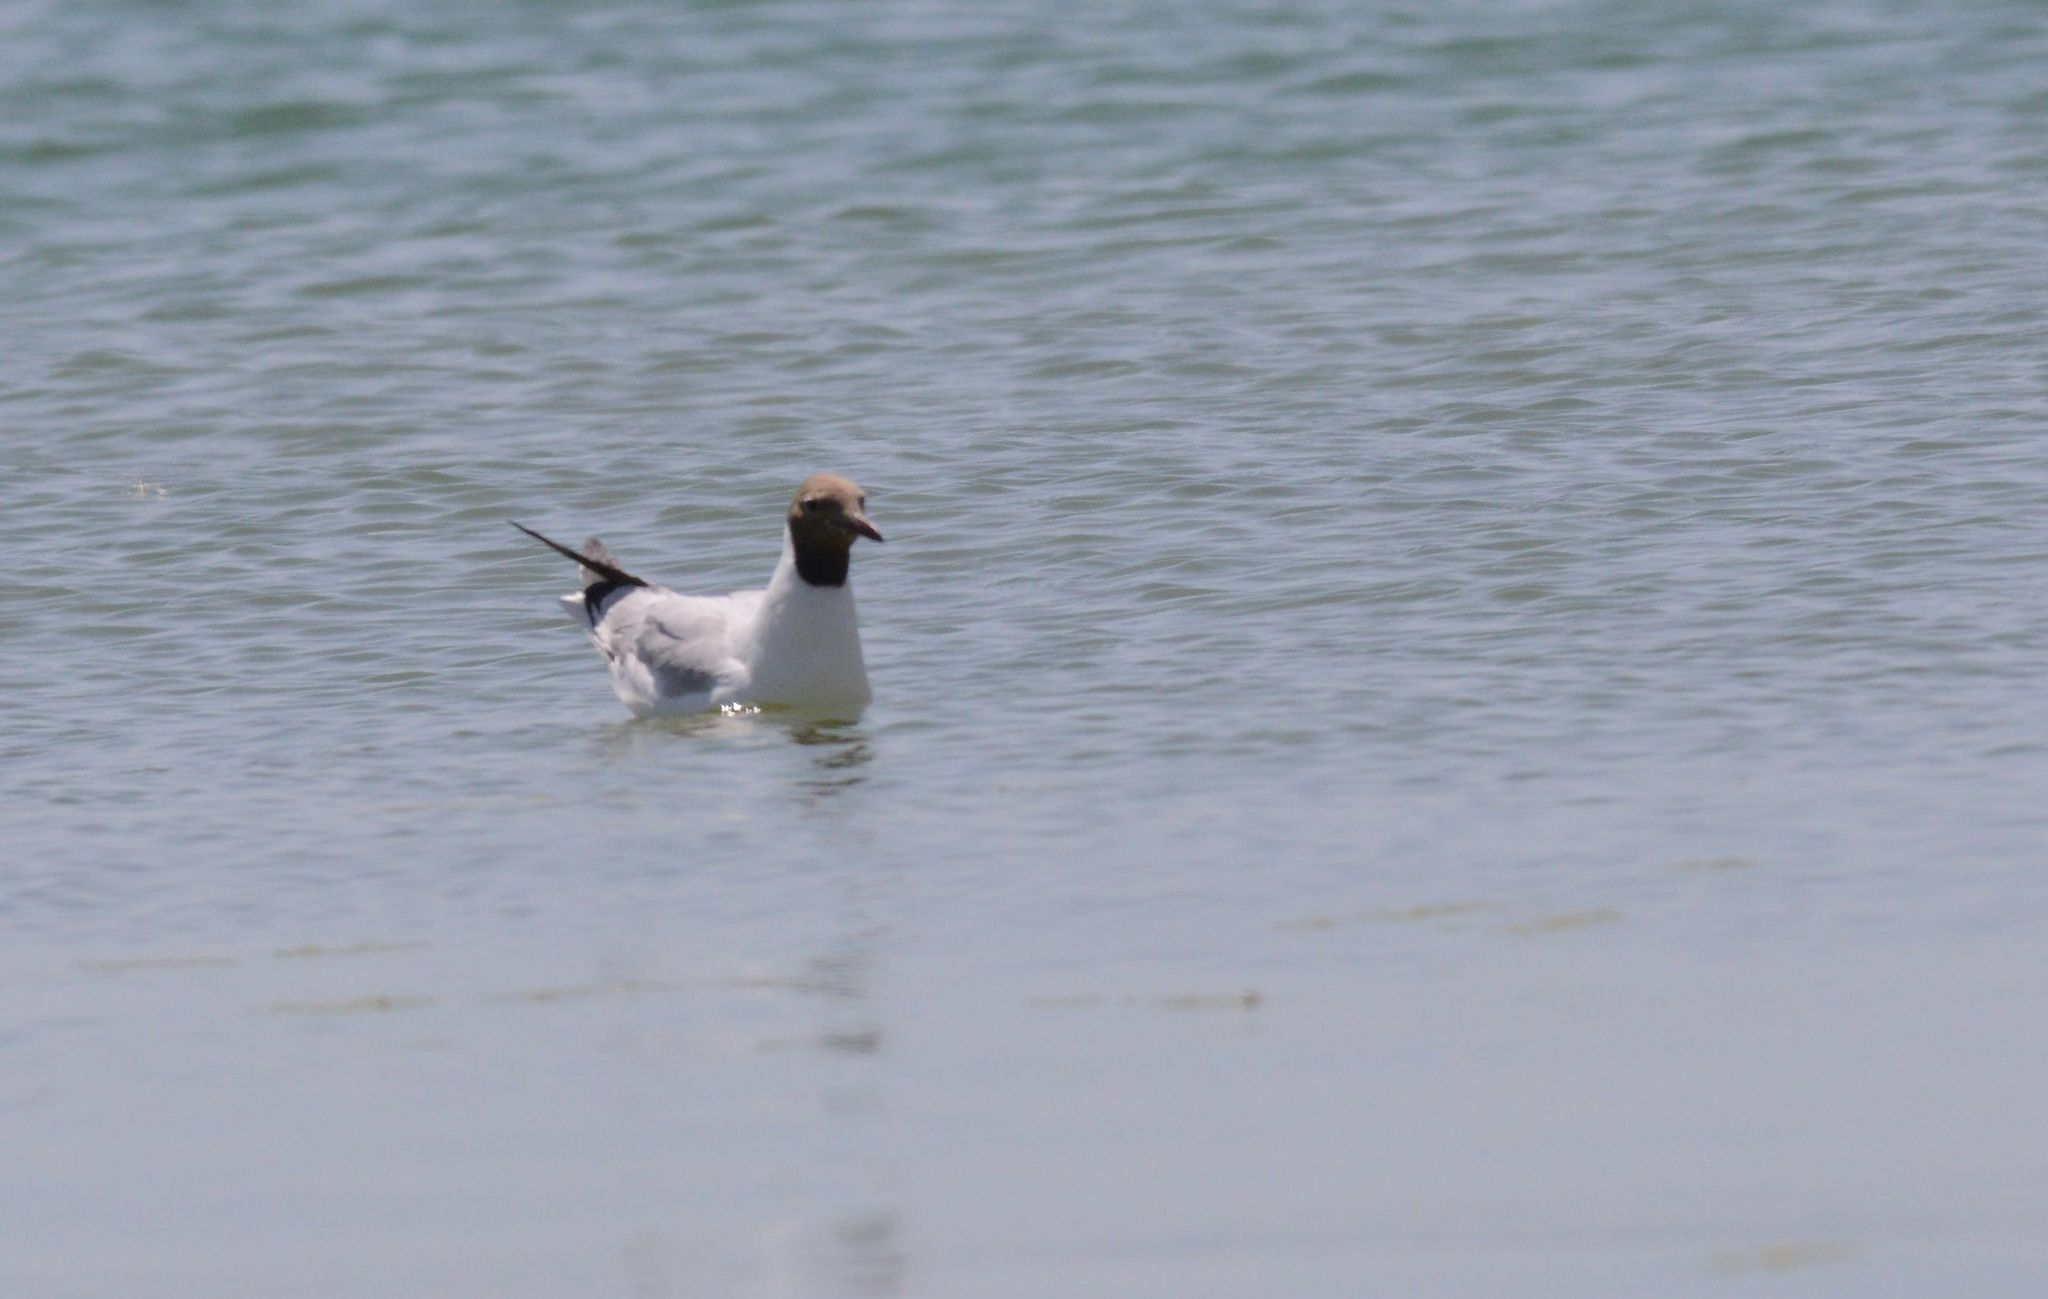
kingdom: Animalia
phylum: Chordata
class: Aves
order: Charadriiformes
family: Laridae
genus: Chroicocephalus
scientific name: Chroicocephalus ridibundus
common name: Black-headed gull
